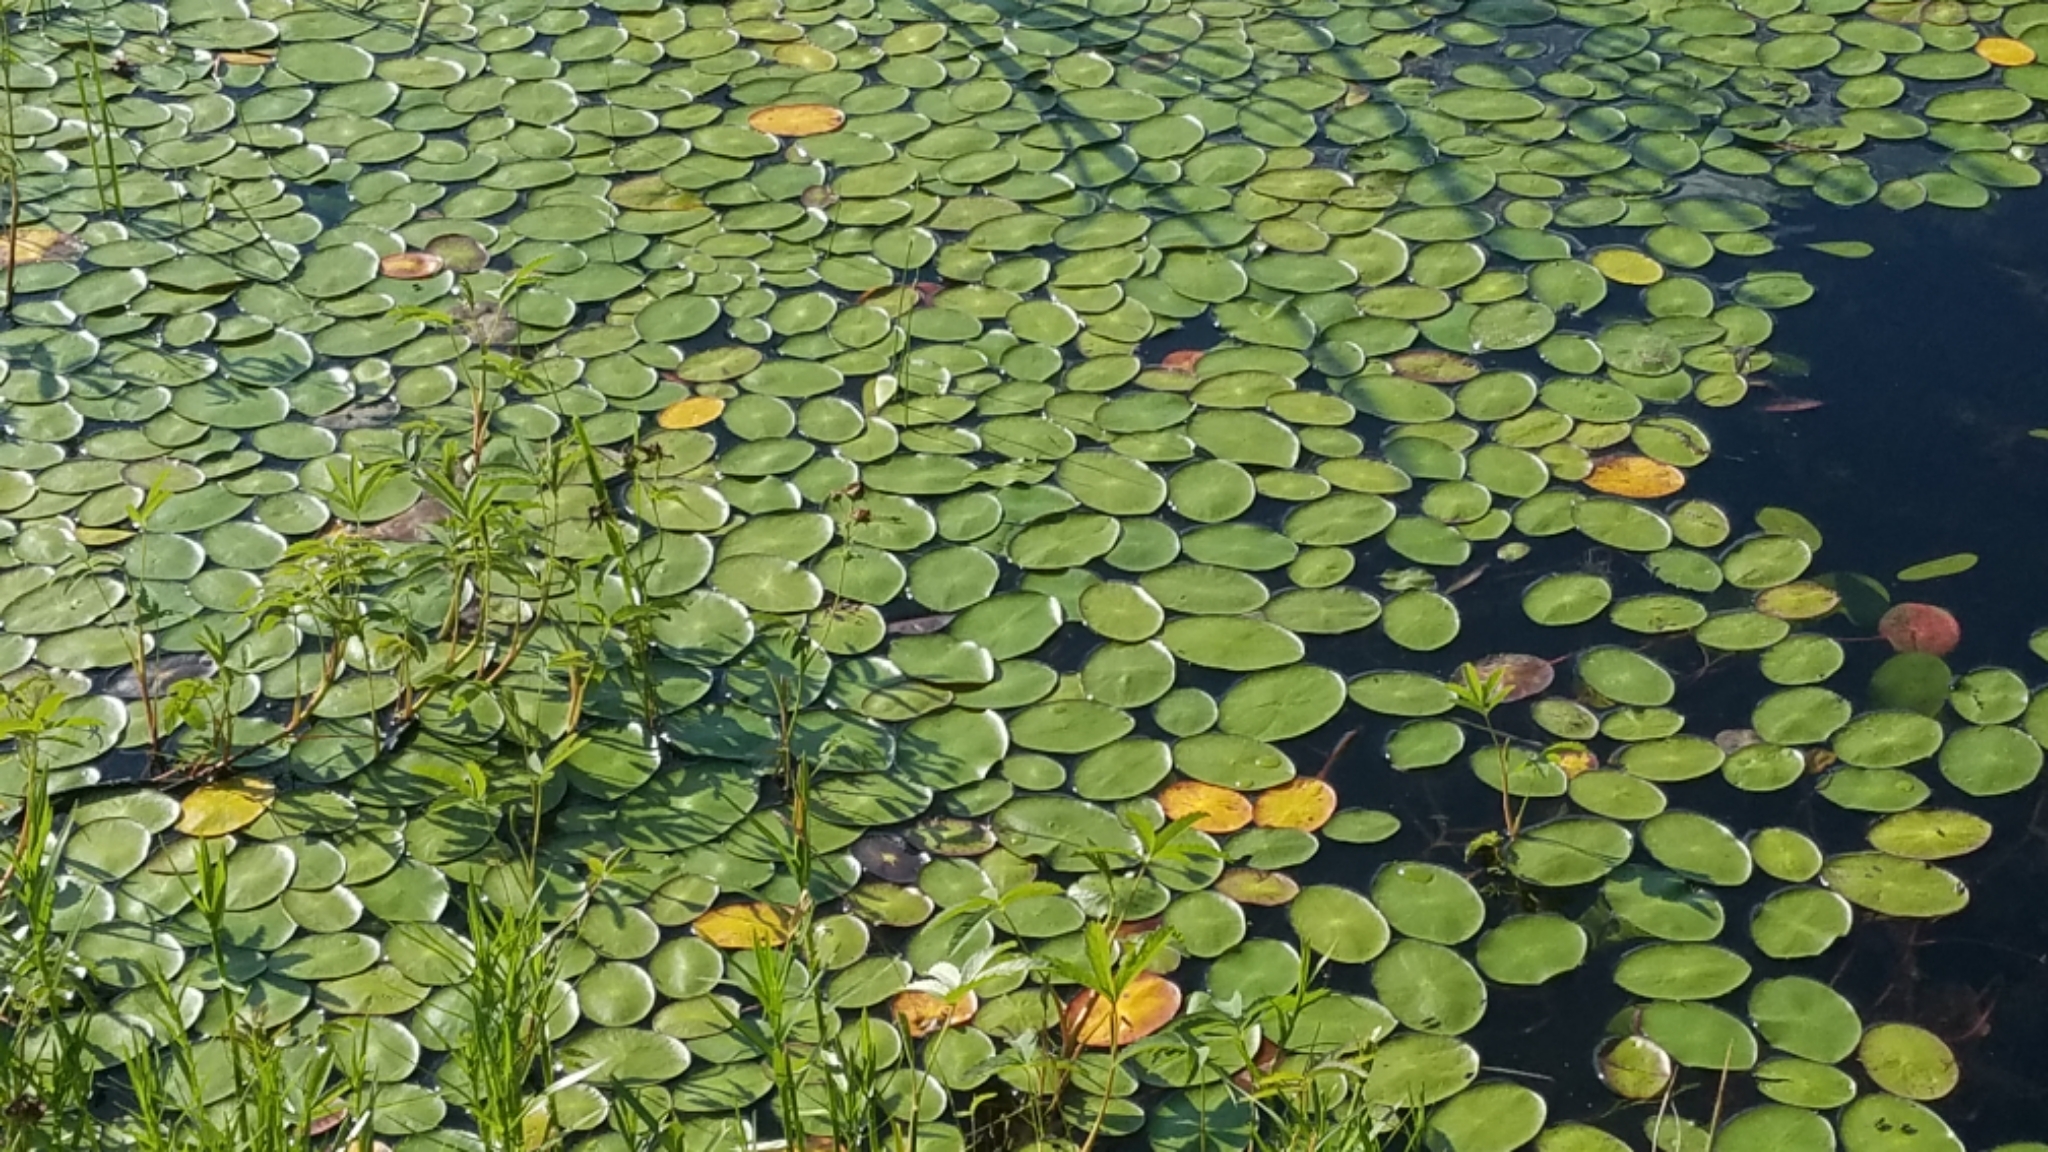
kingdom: Plantae
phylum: Tracheophyta
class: Magnoliopsida
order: Nymphaeales
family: Cabombaceae
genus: Brasenia
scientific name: Brasenia schreberi
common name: Water-shield
